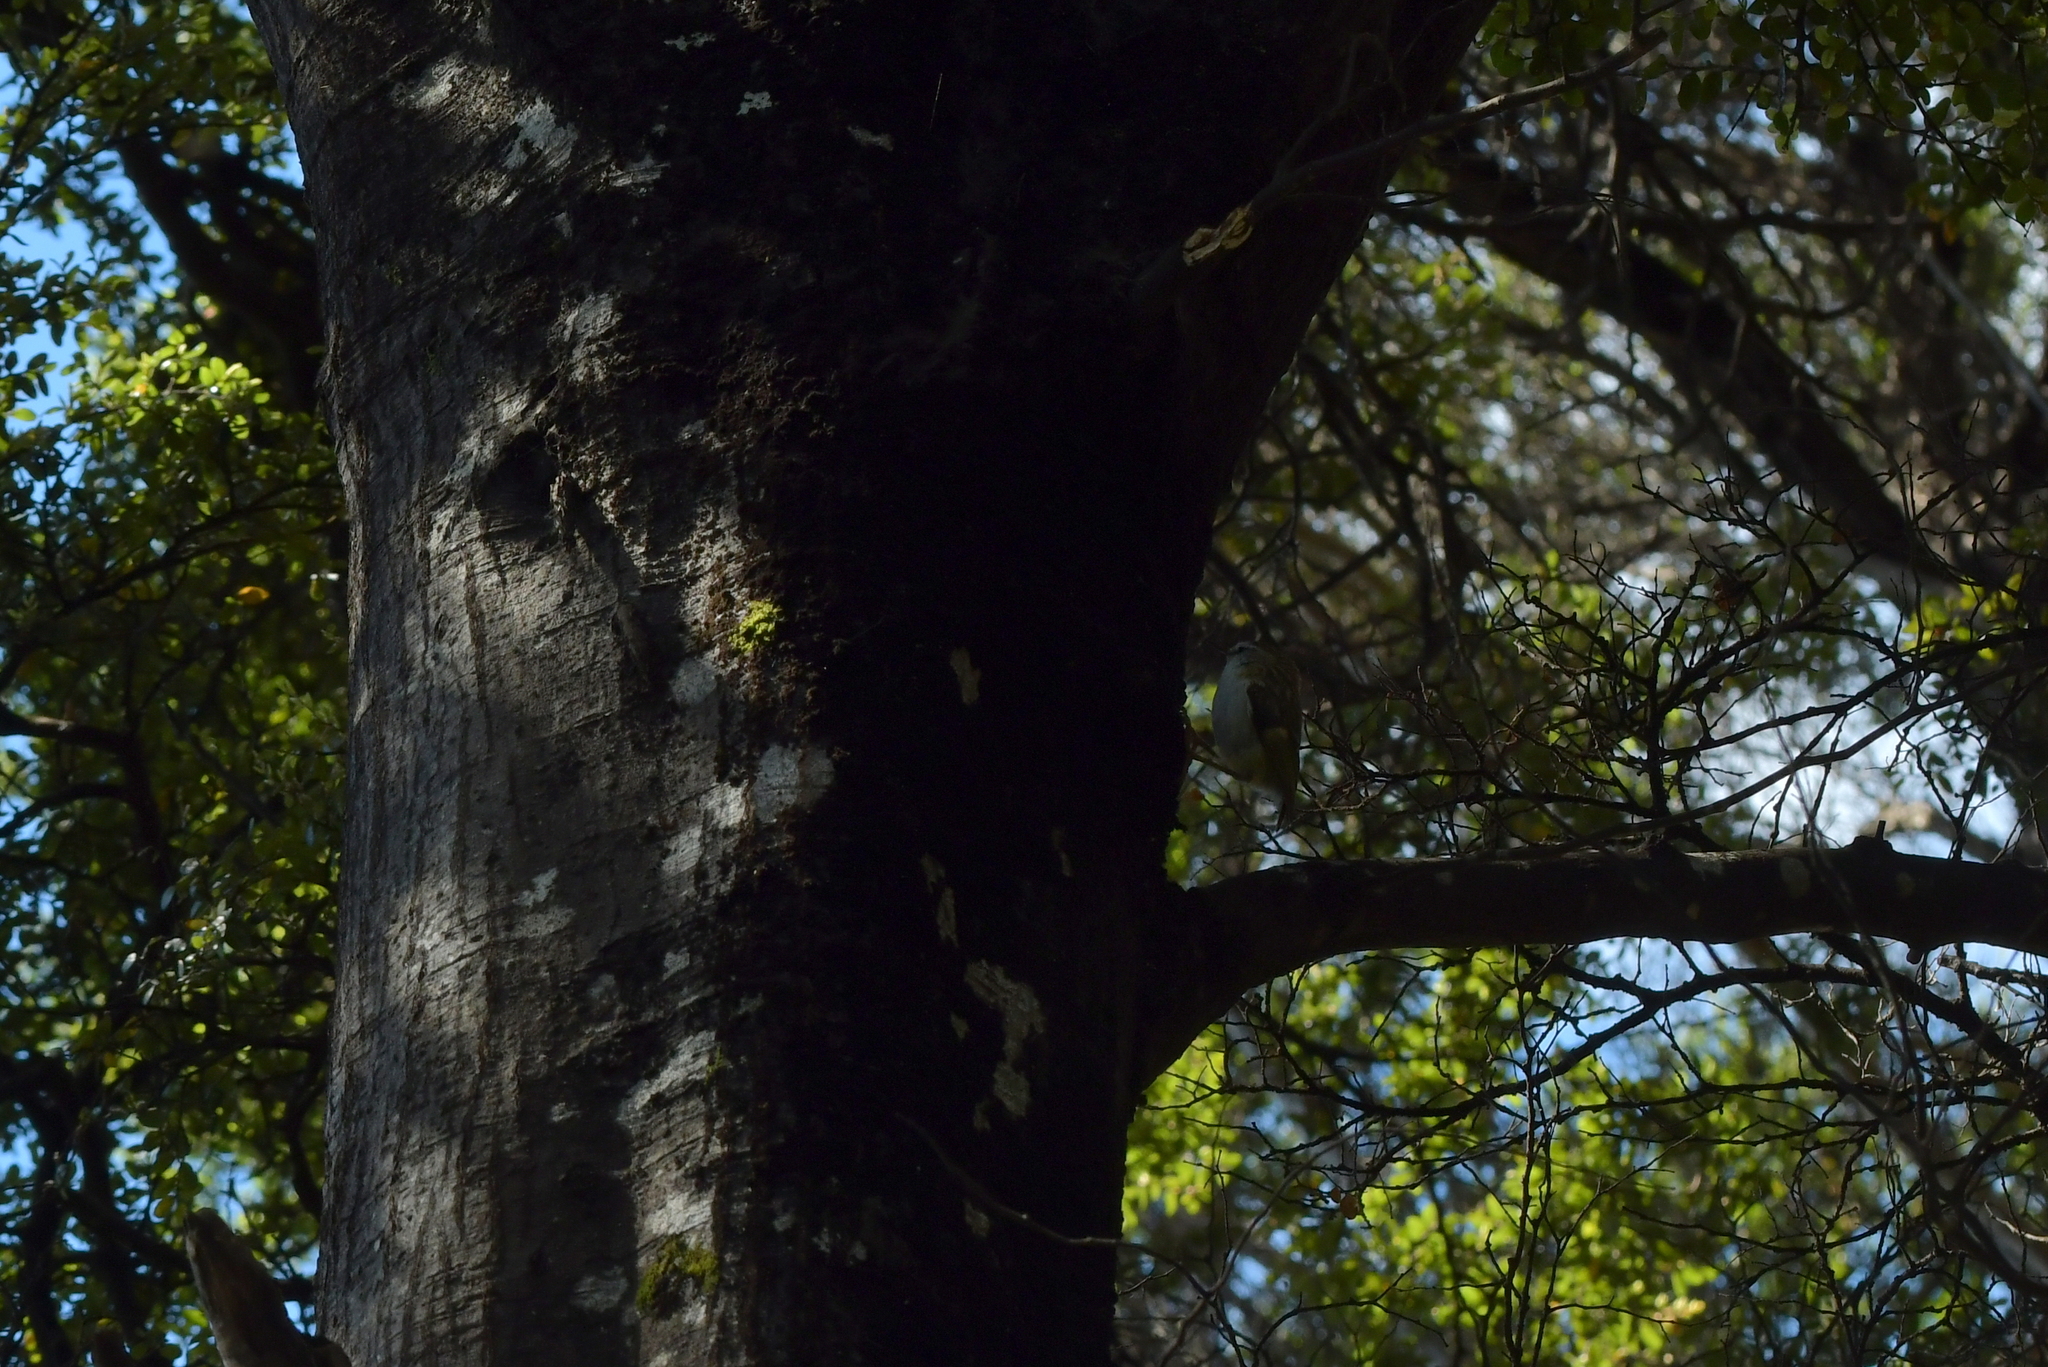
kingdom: Animalia
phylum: Chordata
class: Aves
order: Passeriformes
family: Acanthisittidae
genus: Acanthisitta
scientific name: Acanthisitta chloris
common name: Rifleman
